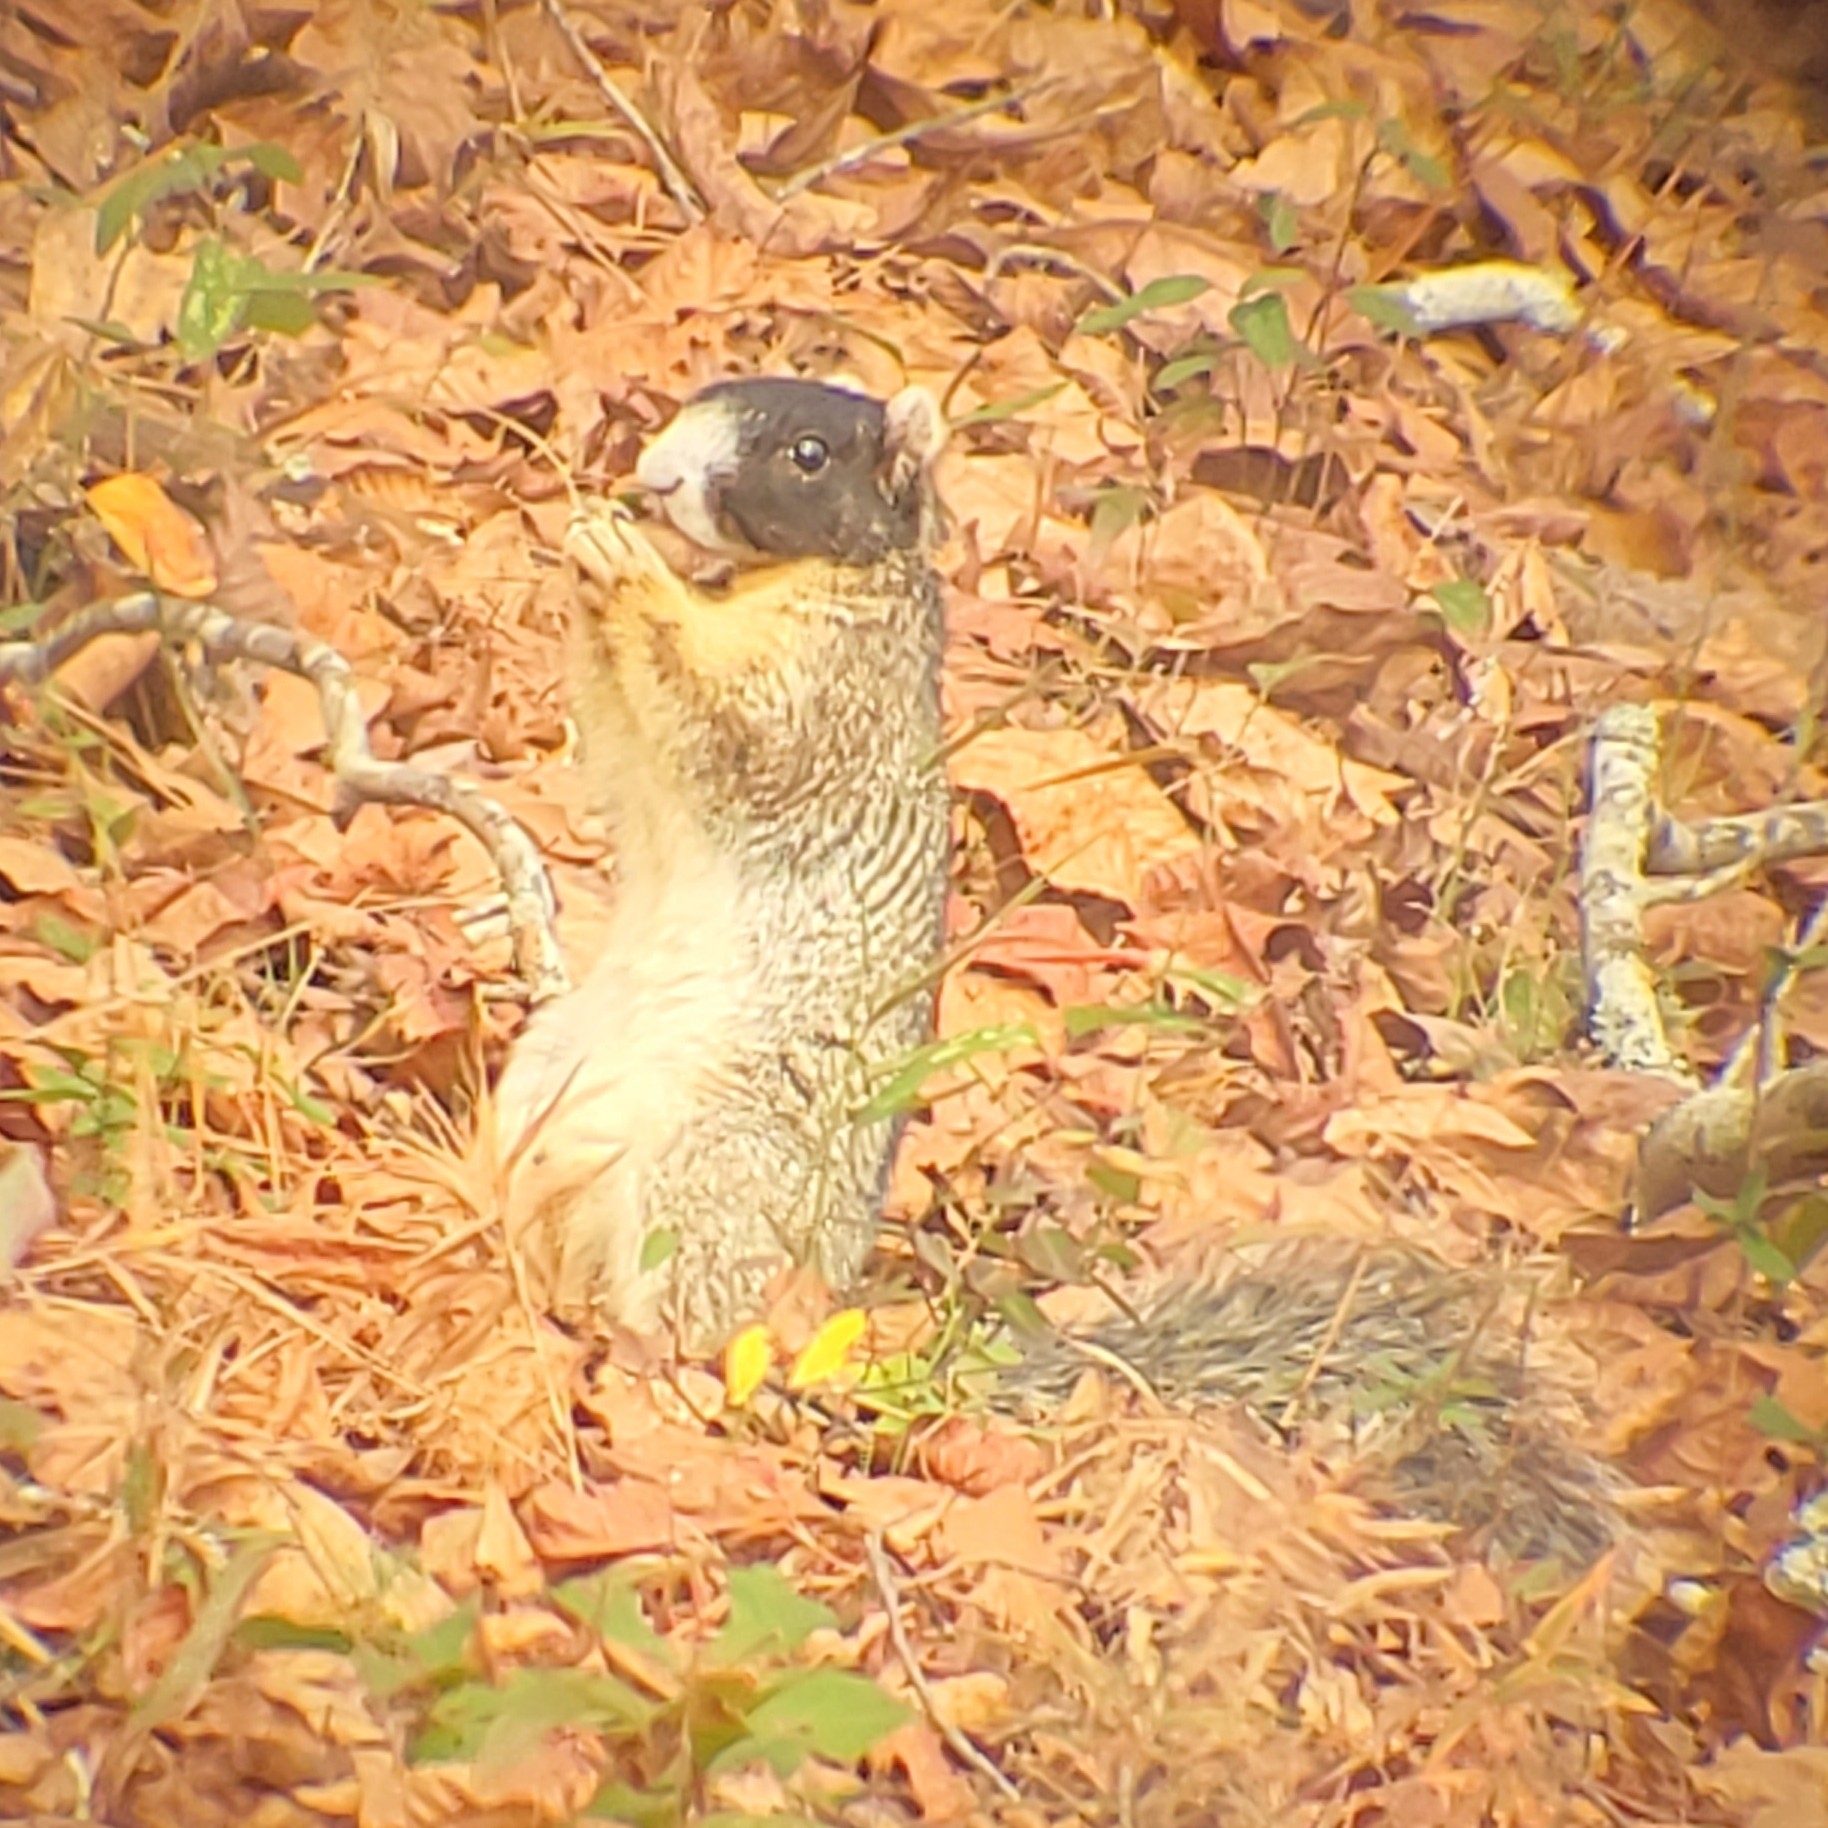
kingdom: Animalia
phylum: Chordata
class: Mammalia
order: Rodentia
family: Sciuridae
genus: Sciurus
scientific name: Sciurus niger
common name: Fox squirrel
